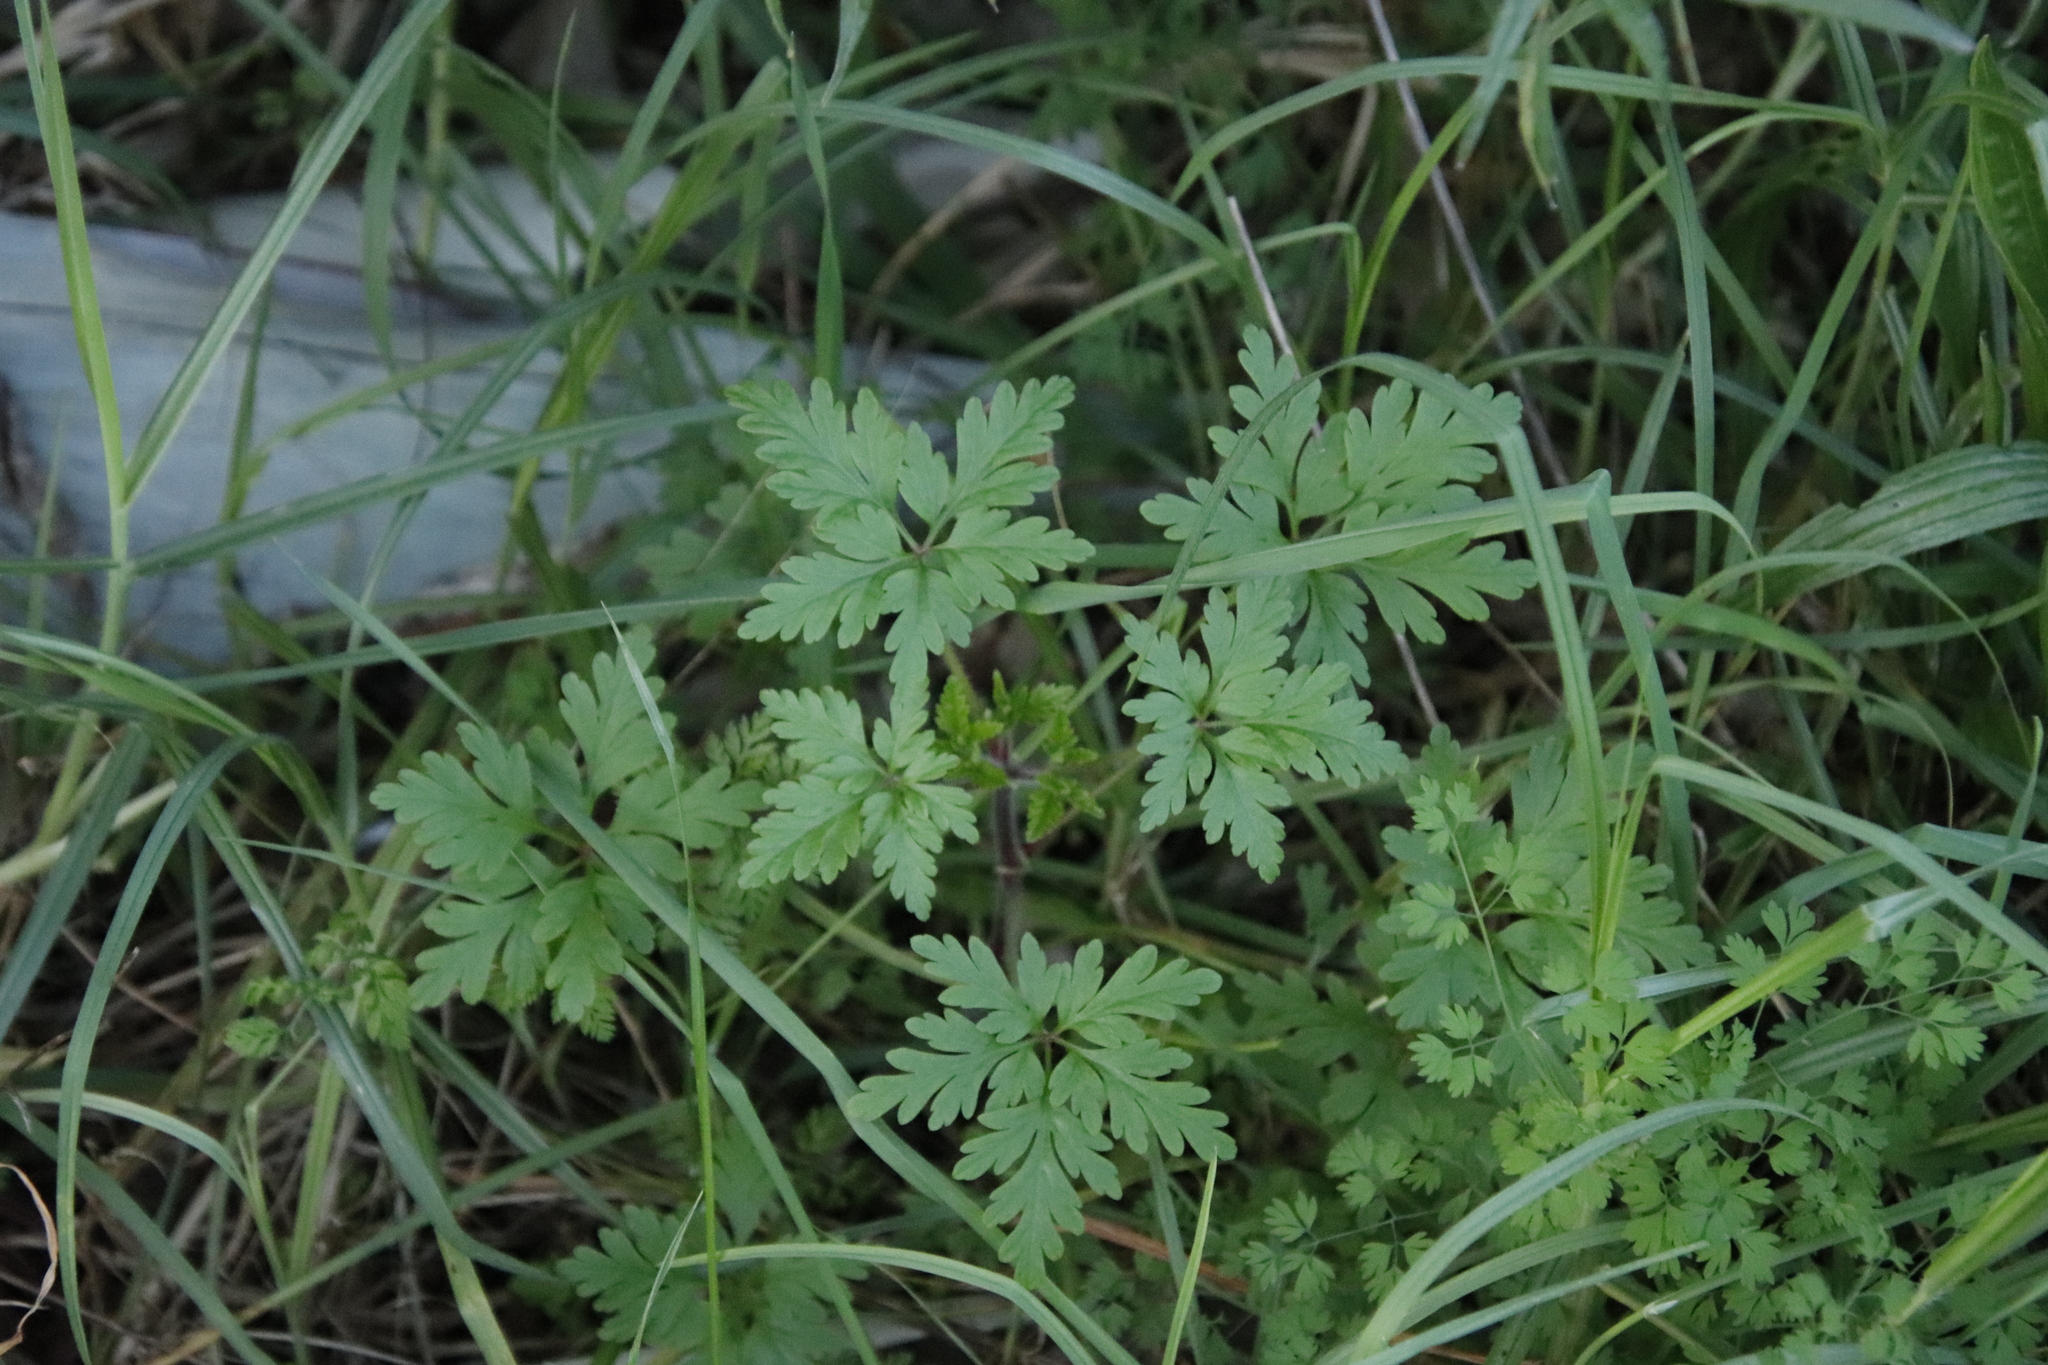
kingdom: Plantae
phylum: Tracheophyta
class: Magnoliopsida
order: Geraniales
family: Geraniaceae
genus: Geranium
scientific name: Geranium purpureum
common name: Little-robin
